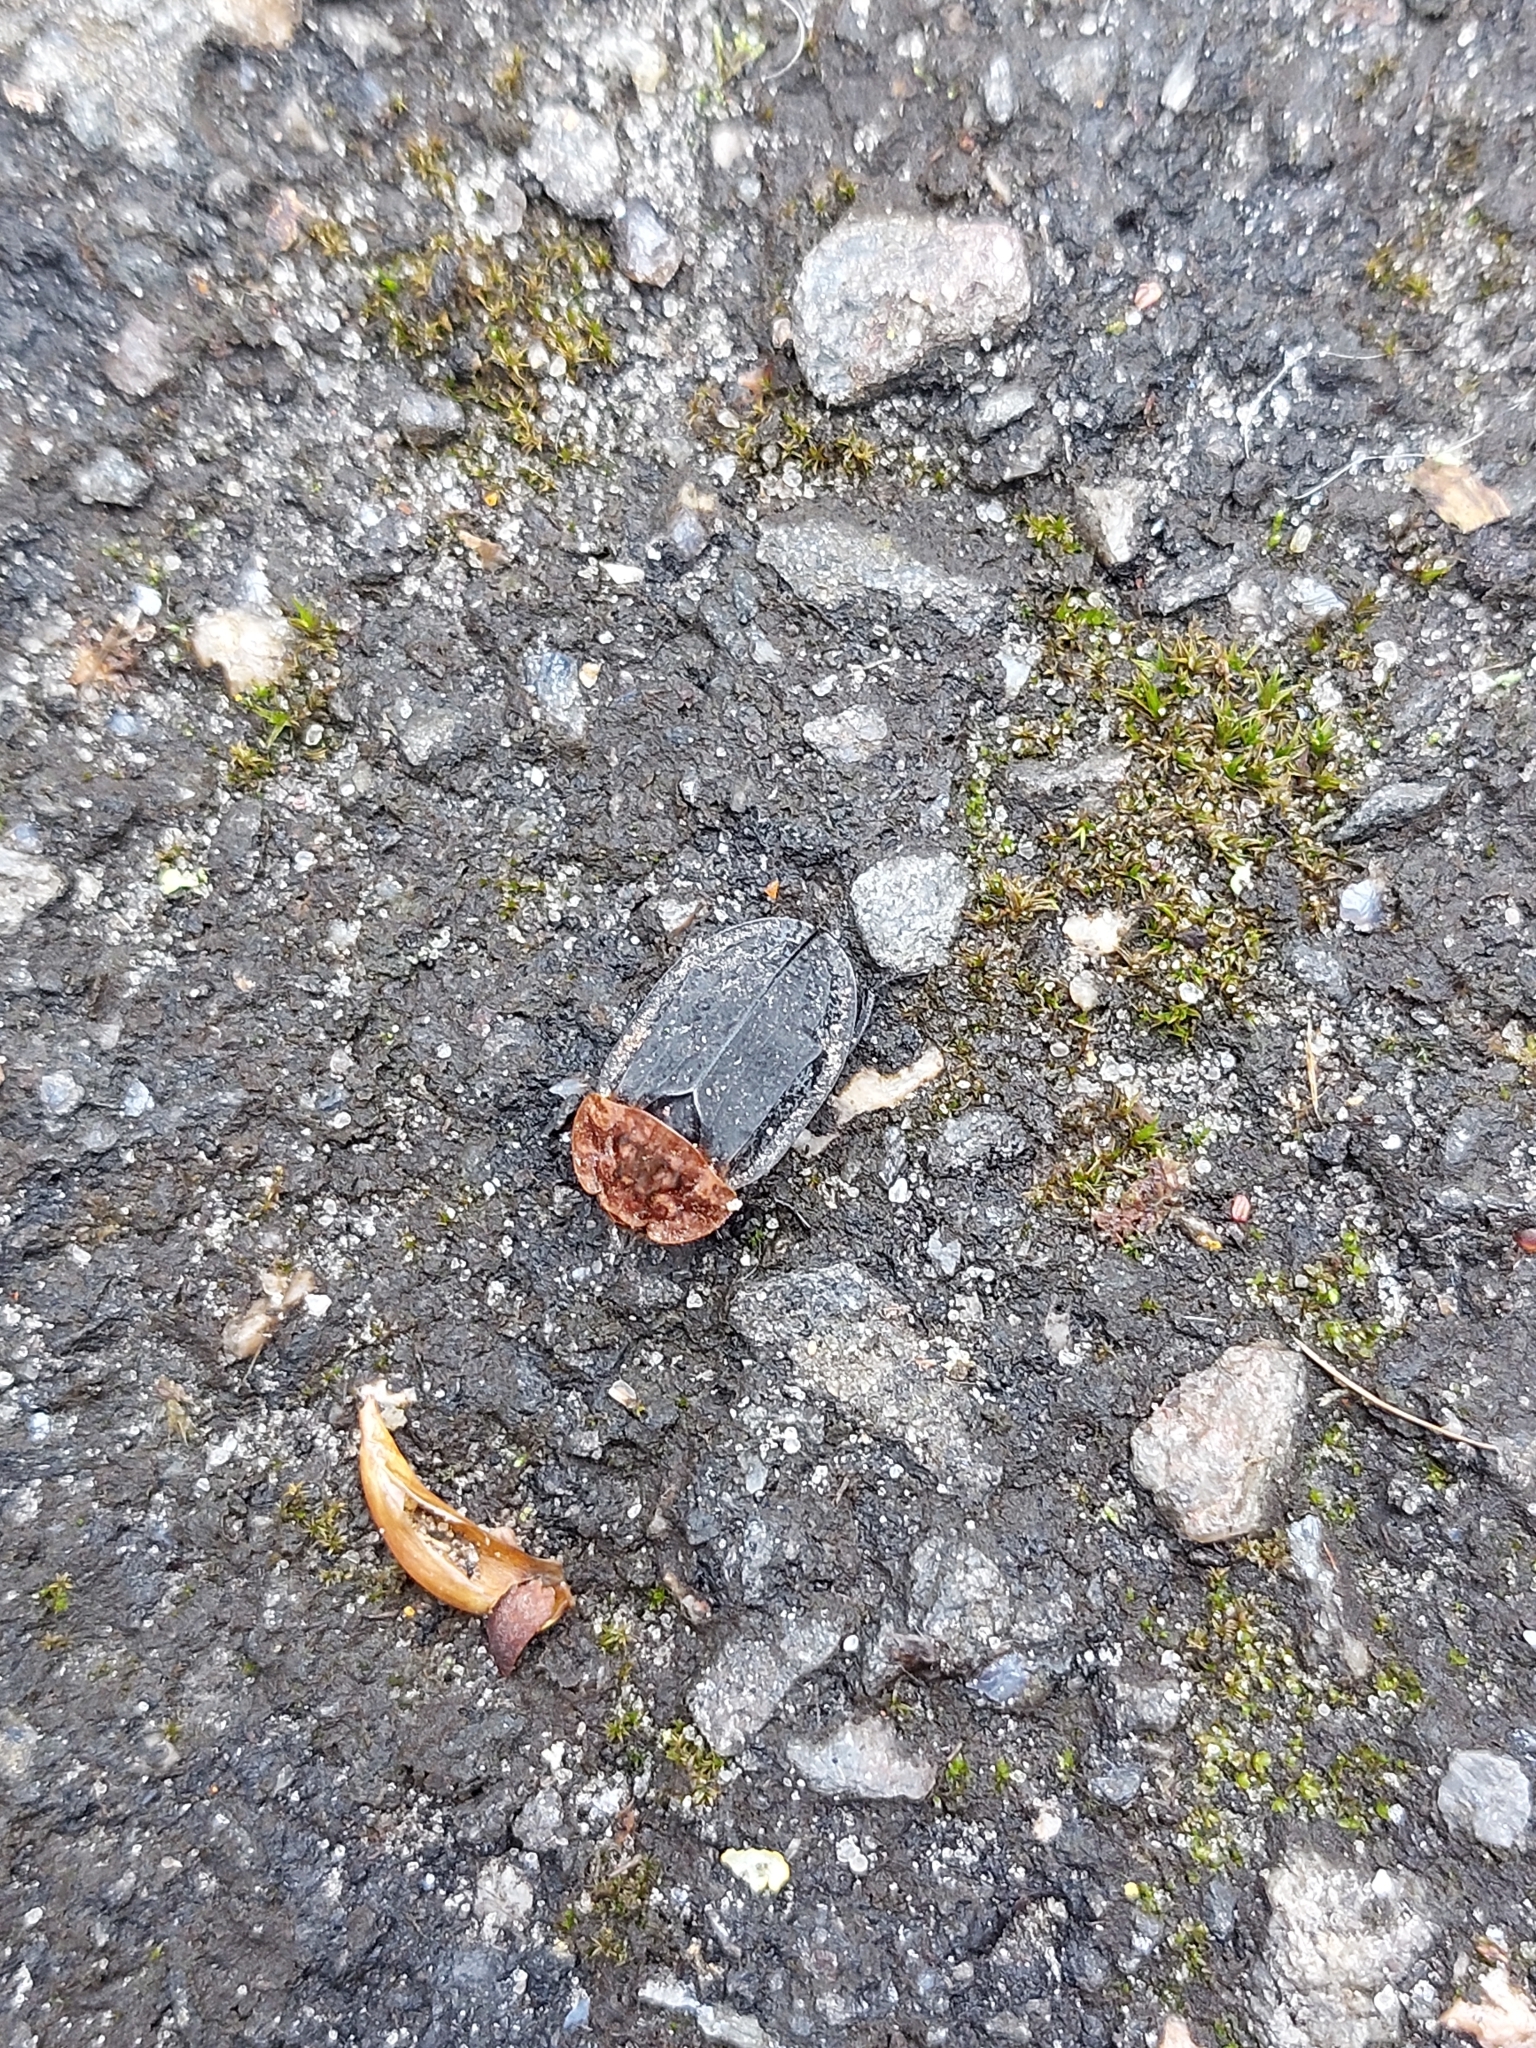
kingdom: Animalia
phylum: Arthropoda
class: Insecta
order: Coleoptera
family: Staphylinidae
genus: Oiceoptoma
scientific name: Oiceoptoma thoracicum
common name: Red-breasted carrion beetle
